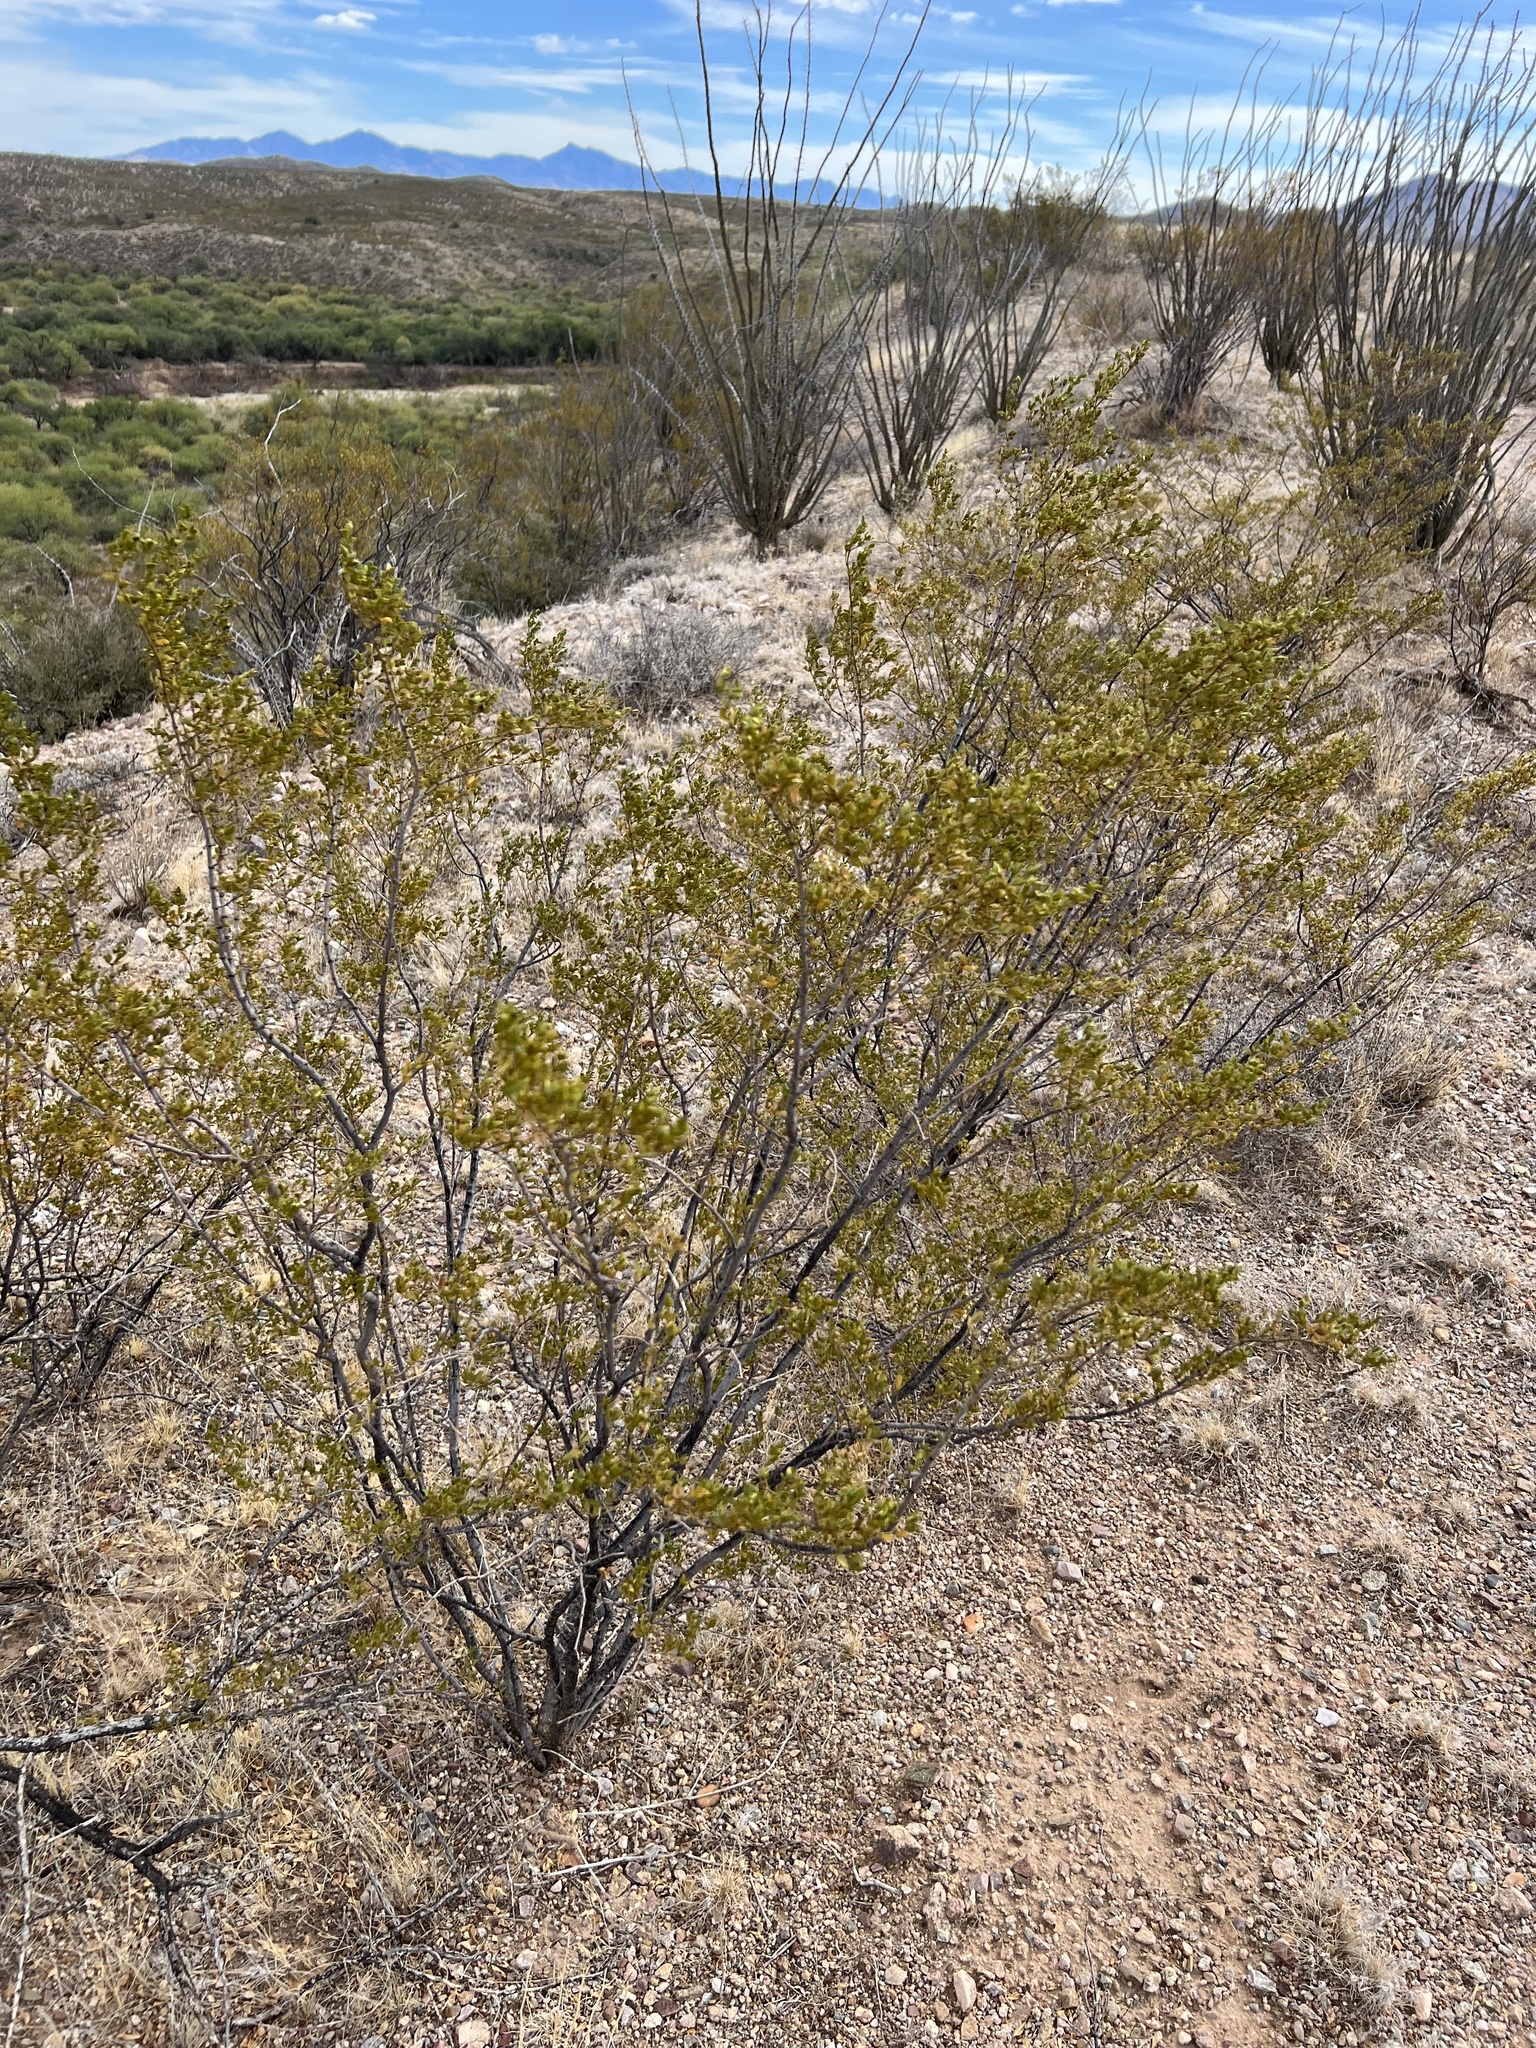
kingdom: Plantae
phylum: Tracheophyta
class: Magnoliopsida
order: Zygophyllales
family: Zygophyllaceae
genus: Larrea
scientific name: Larrea tridentata
